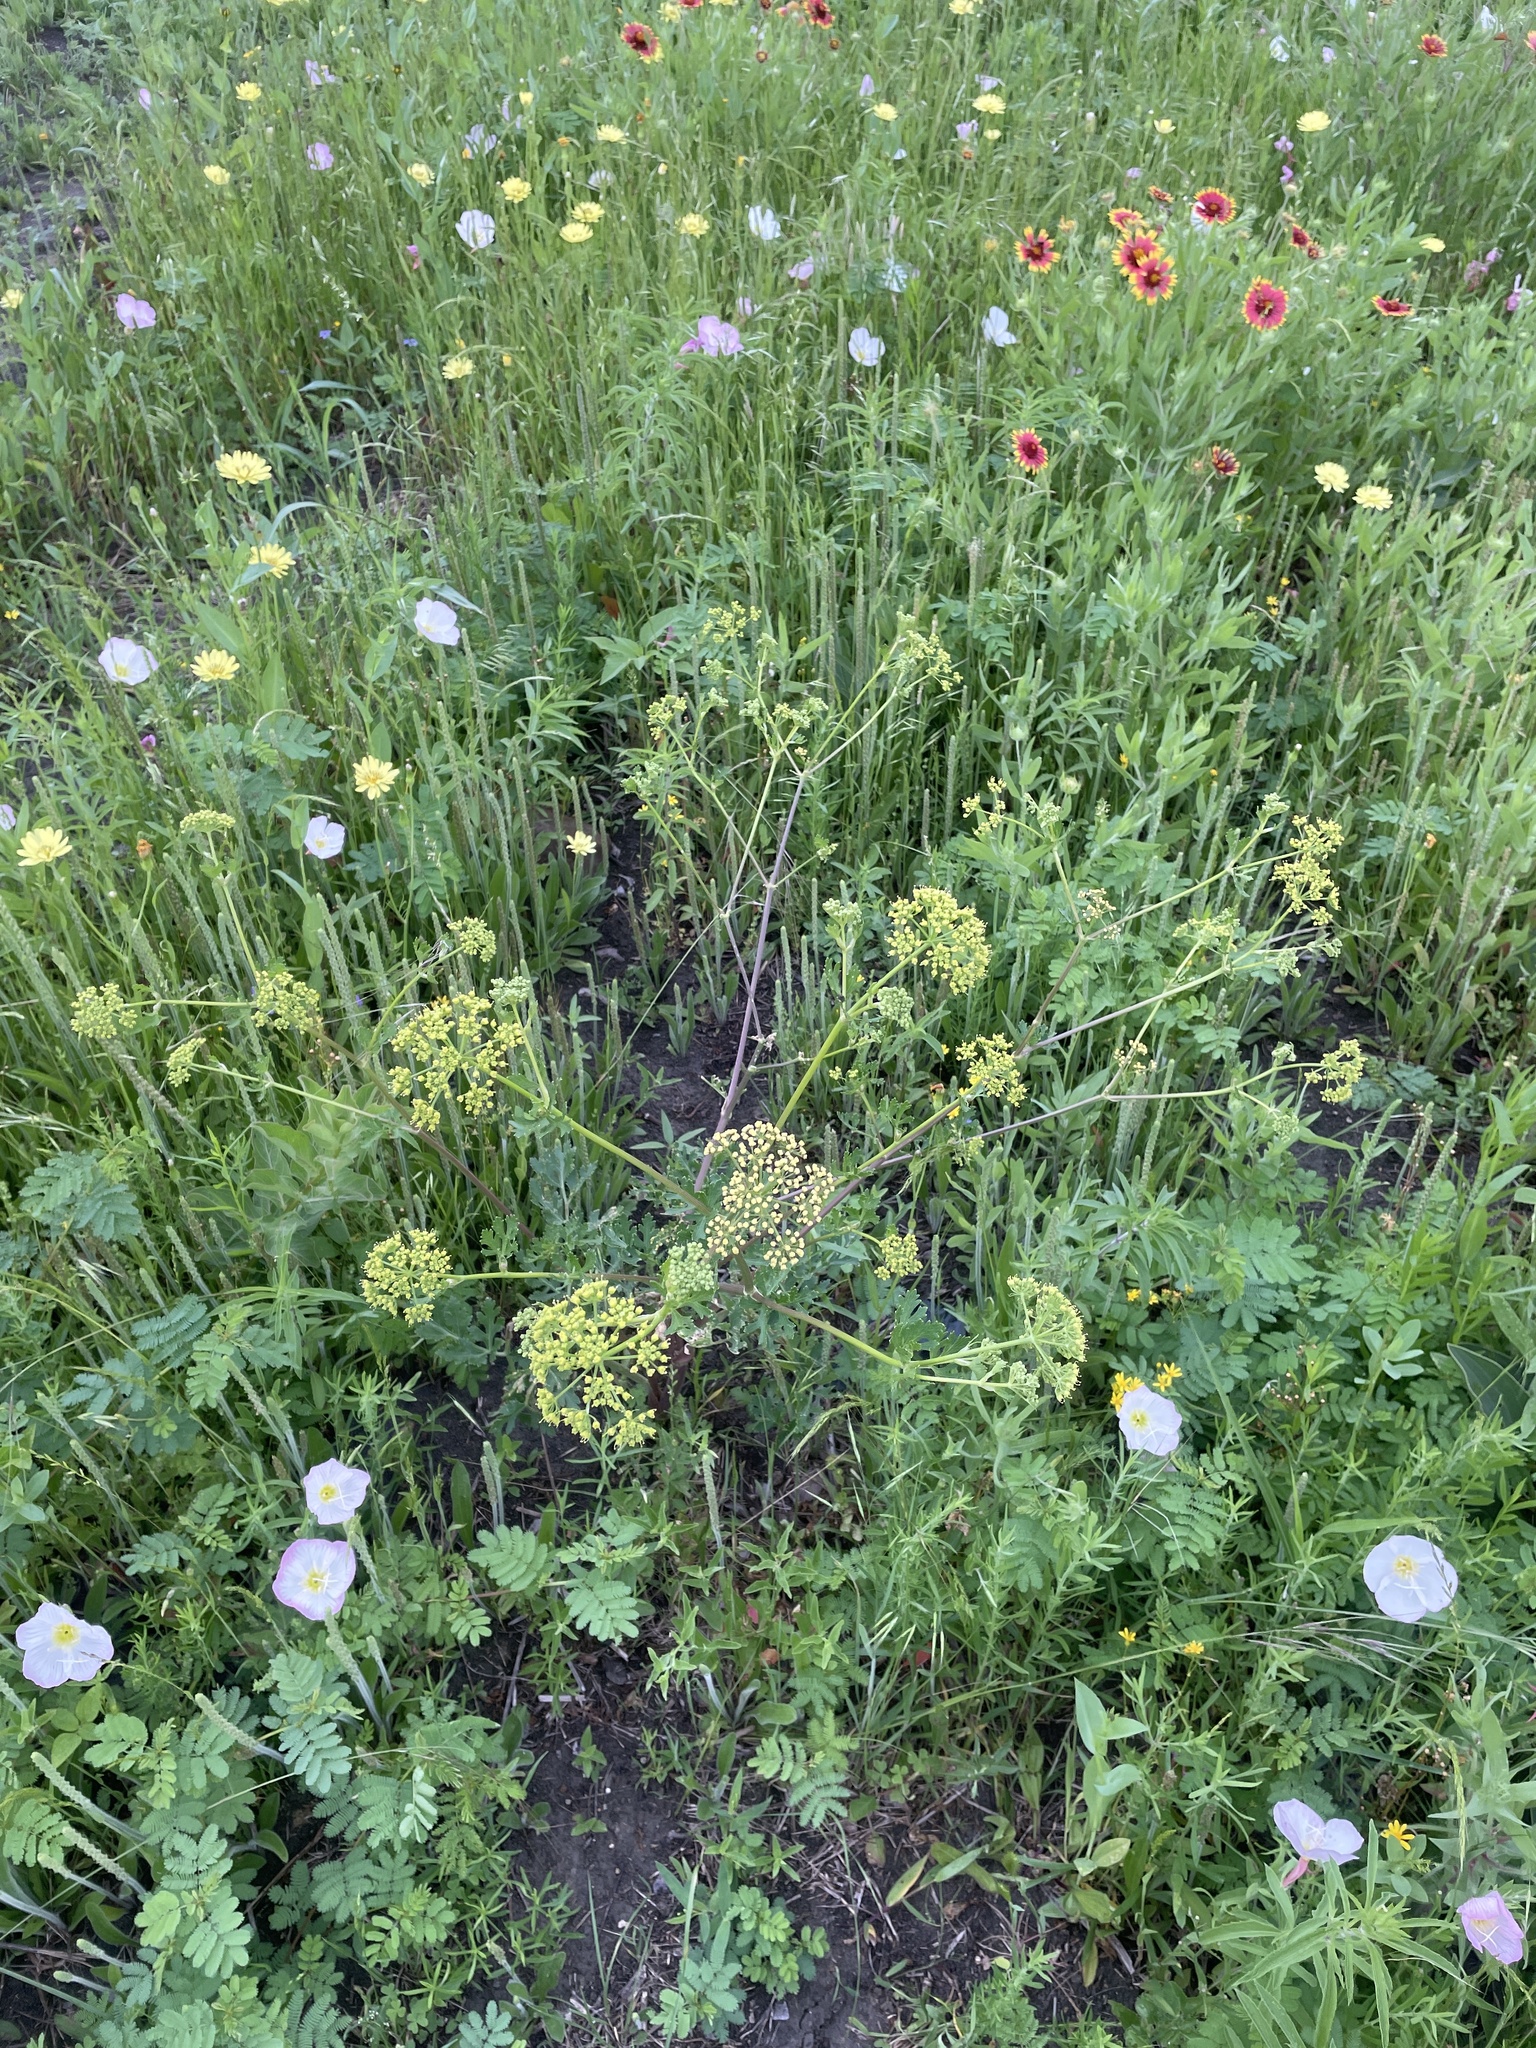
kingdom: Plantae
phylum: Tracheophyta
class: Magnoliopsida
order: Apiales
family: Apiaceae
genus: Polytaenia
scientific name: Polytaenia texana
